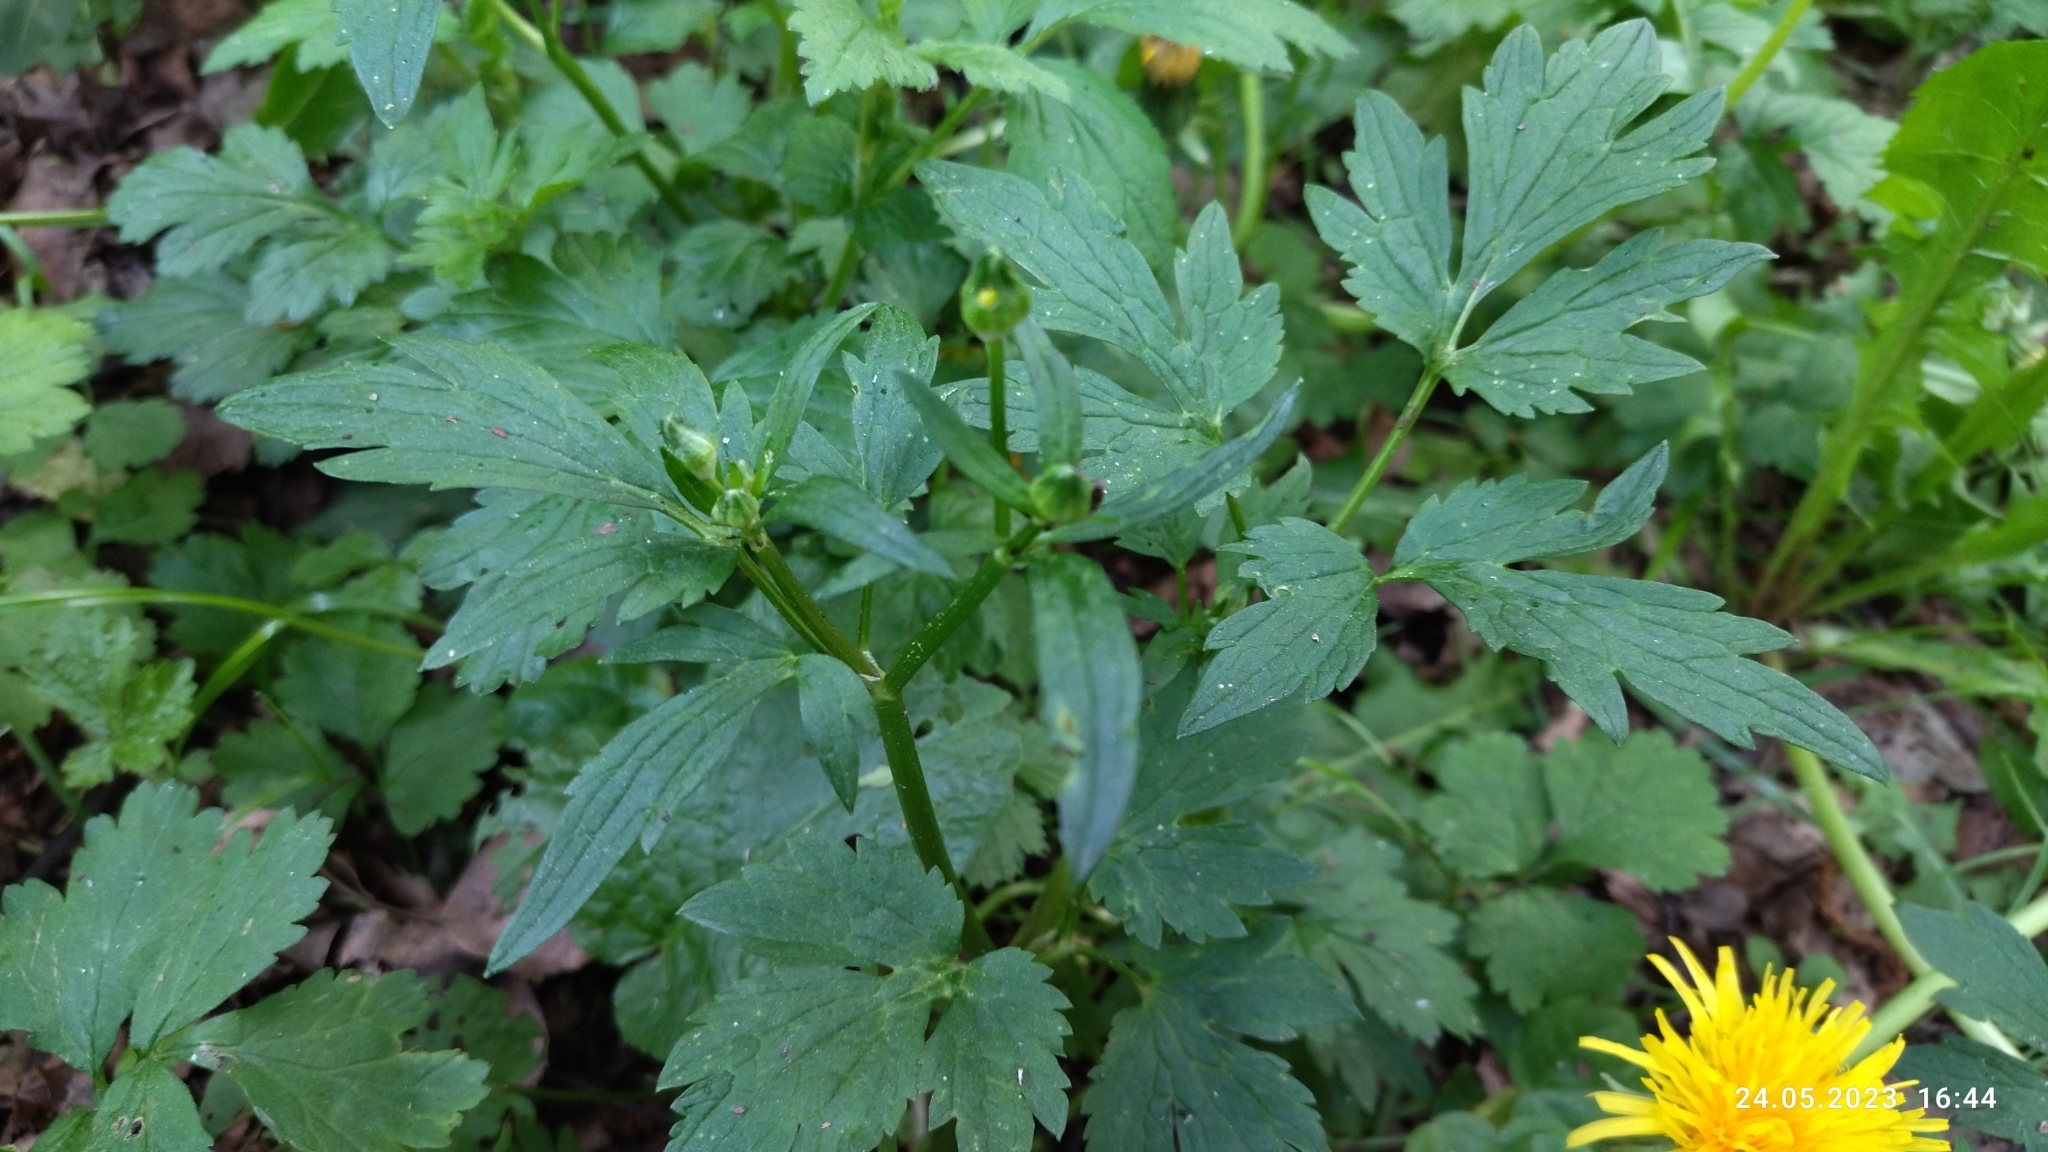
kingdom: Plantae
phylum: Tracheophyta
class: Magnoliopsida
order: Ranunculales
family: Ranunculaceae
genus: Ranunculus
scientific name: Ranunculus repens
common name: Creeping buttercup
